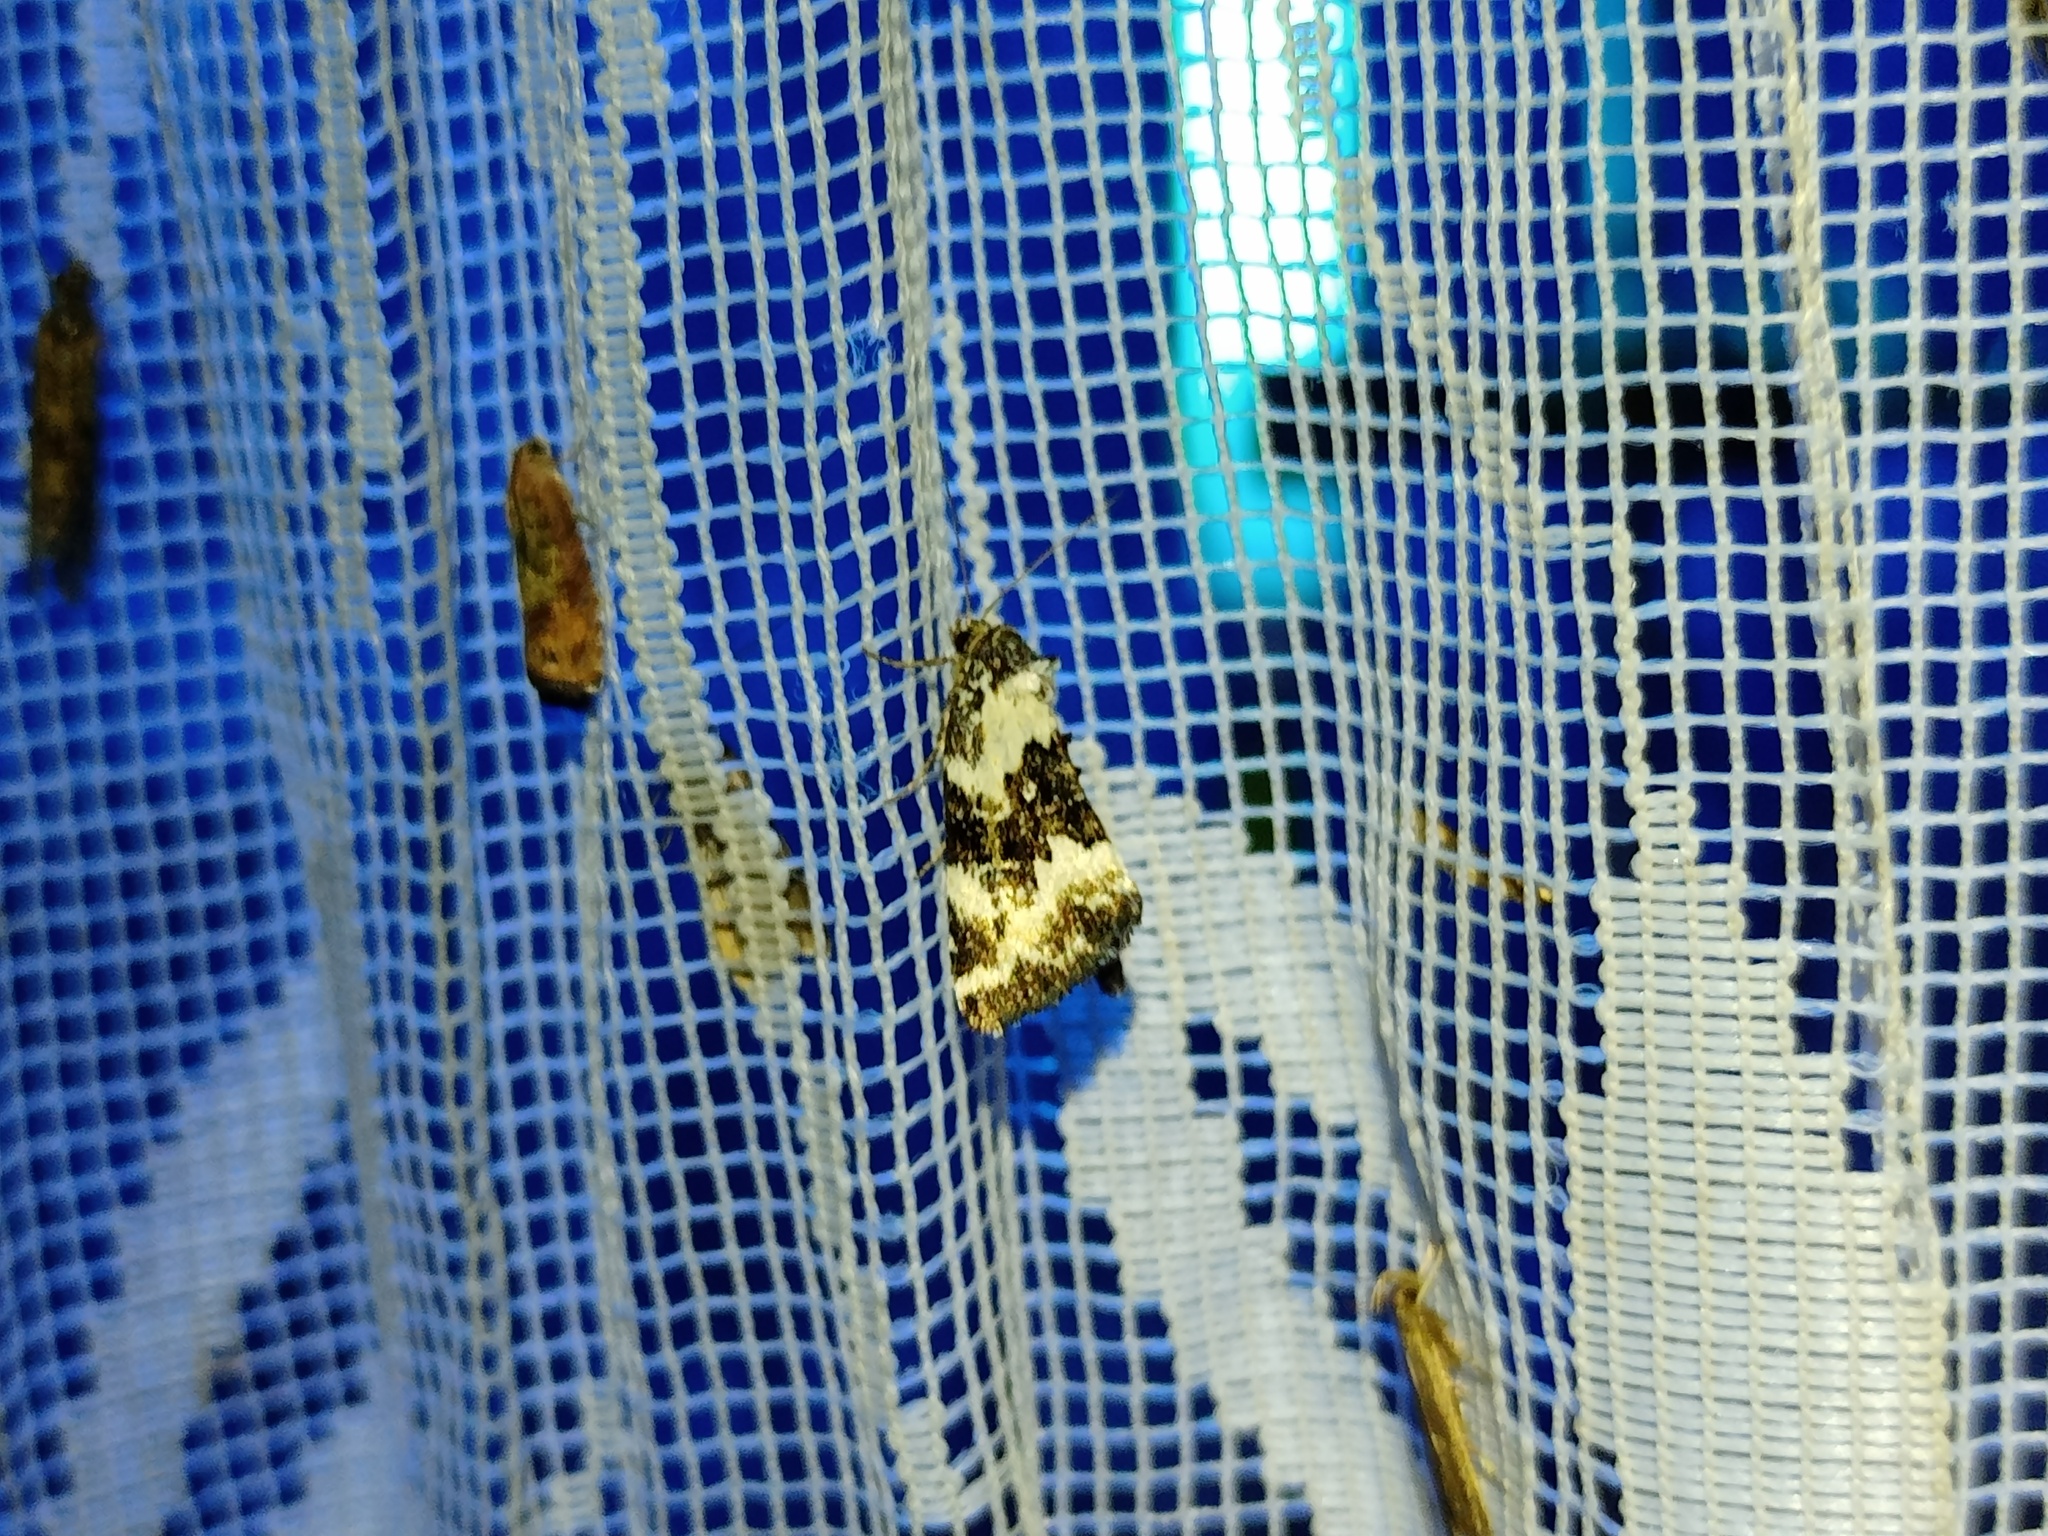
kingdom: Animalia
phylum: Arthropoda
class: Insecta
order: Lepidoptera
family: Noctuidae
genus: Deltote
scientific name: Deltote deceptoria
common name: Pretty marbled
